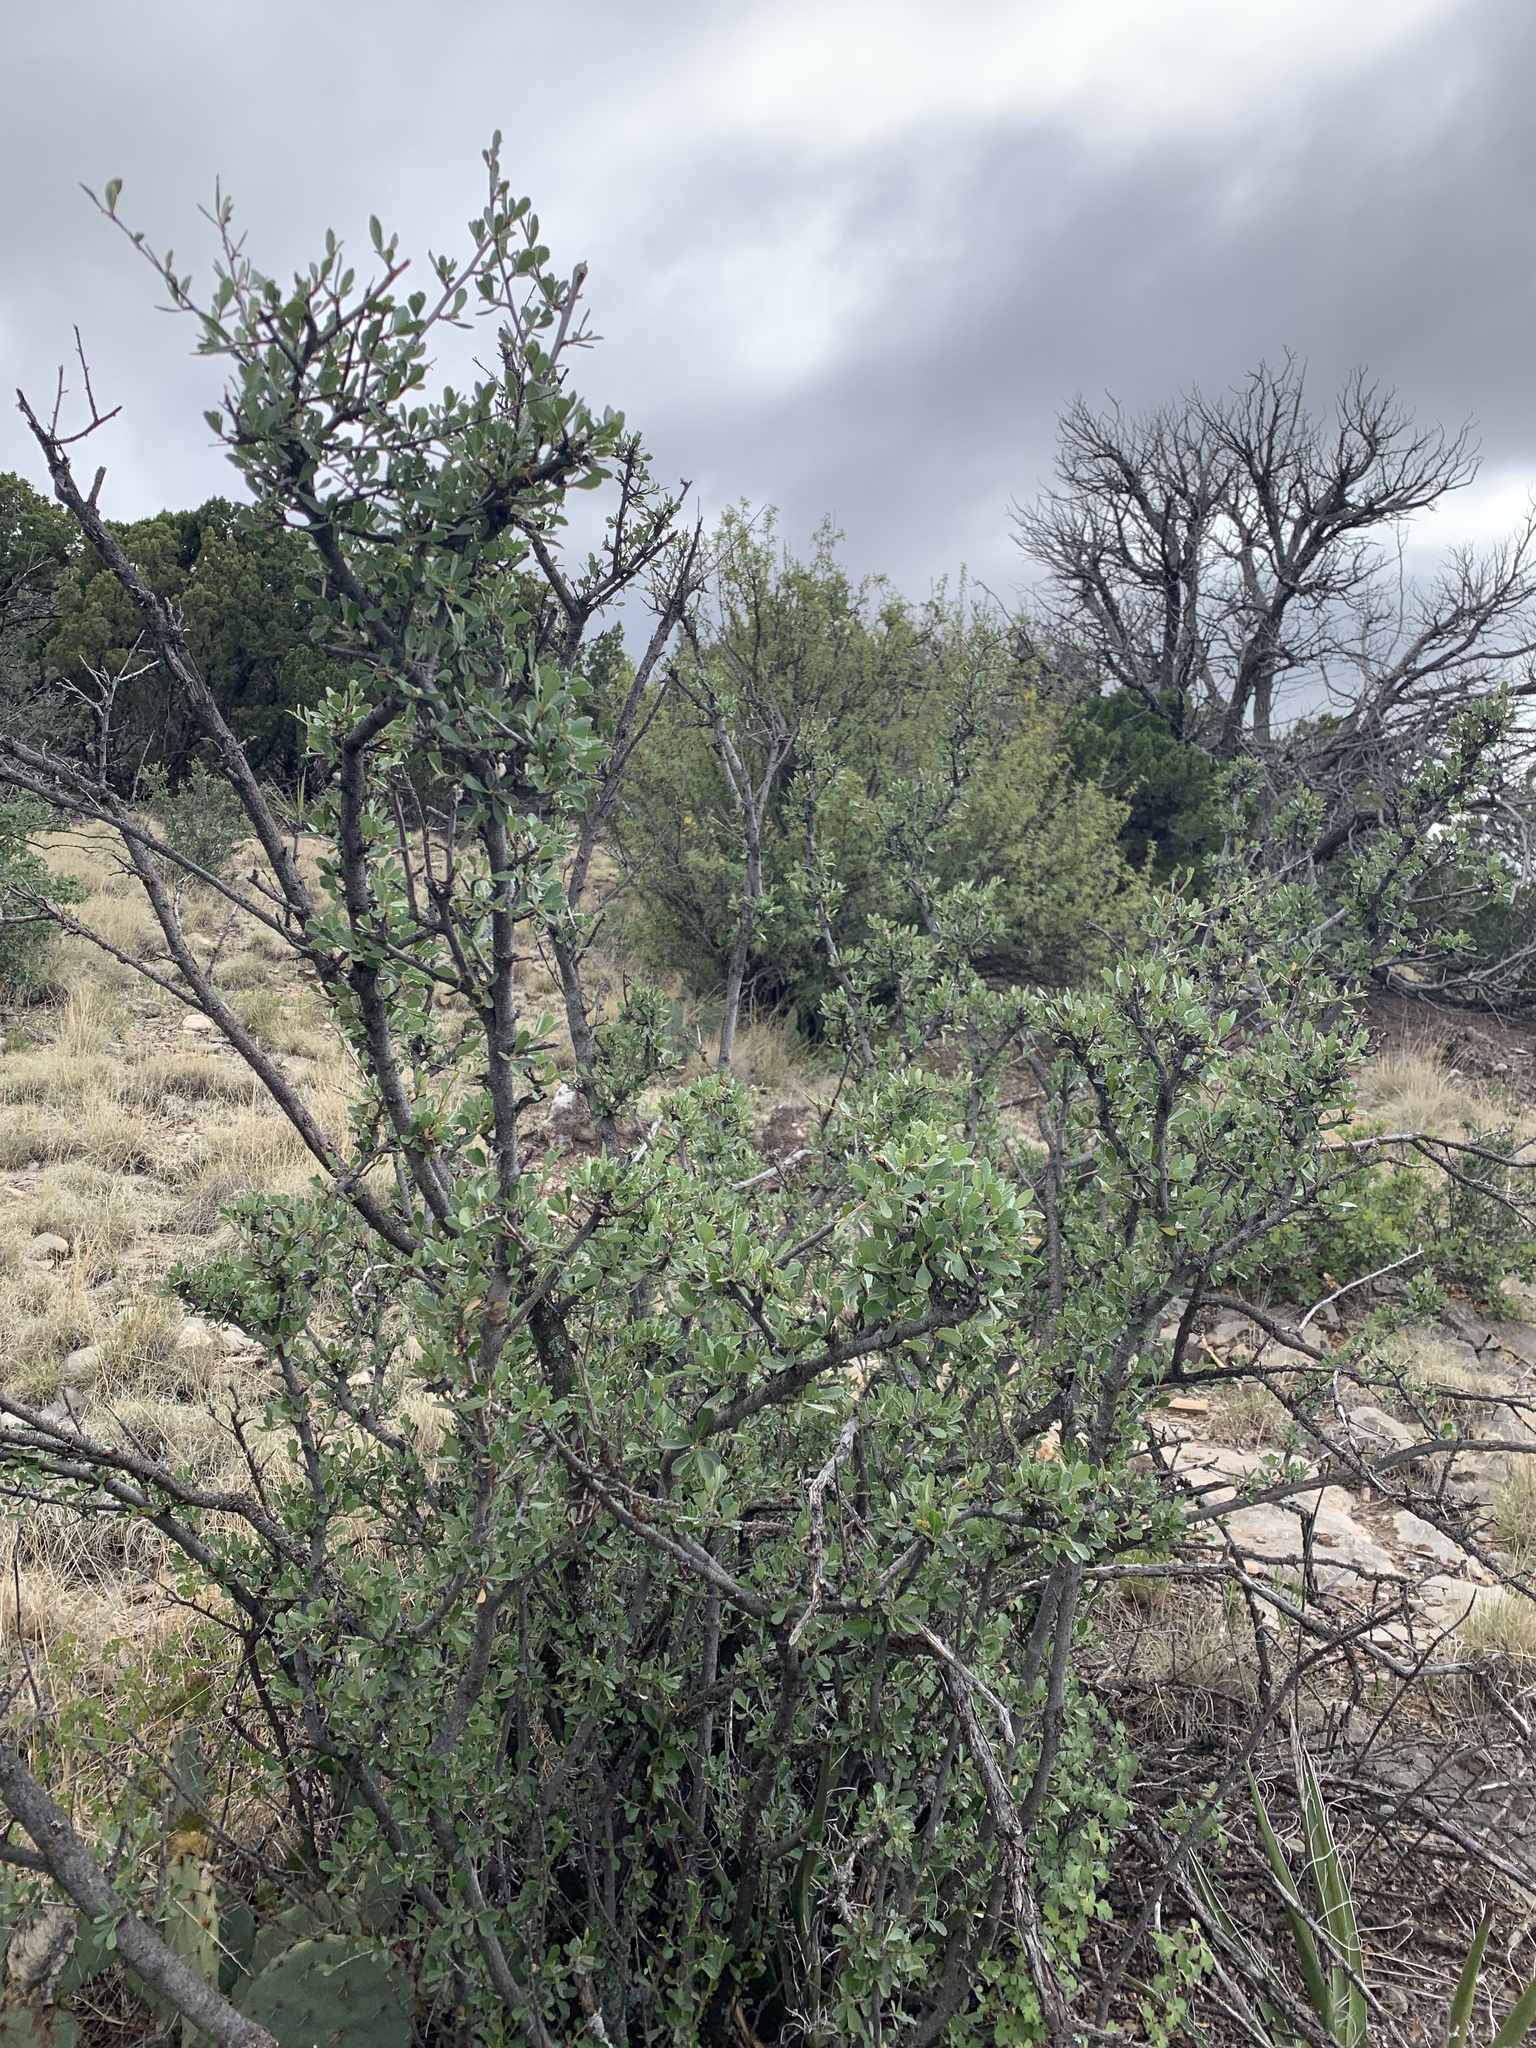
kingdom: Plantae
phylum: Tracheophyta
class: Magnoliopsida
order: Rosales
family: Rosaceae
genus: Cercocarpus
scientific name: Cercocarpus breviflorus
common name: Wright's mountain-mahogany
